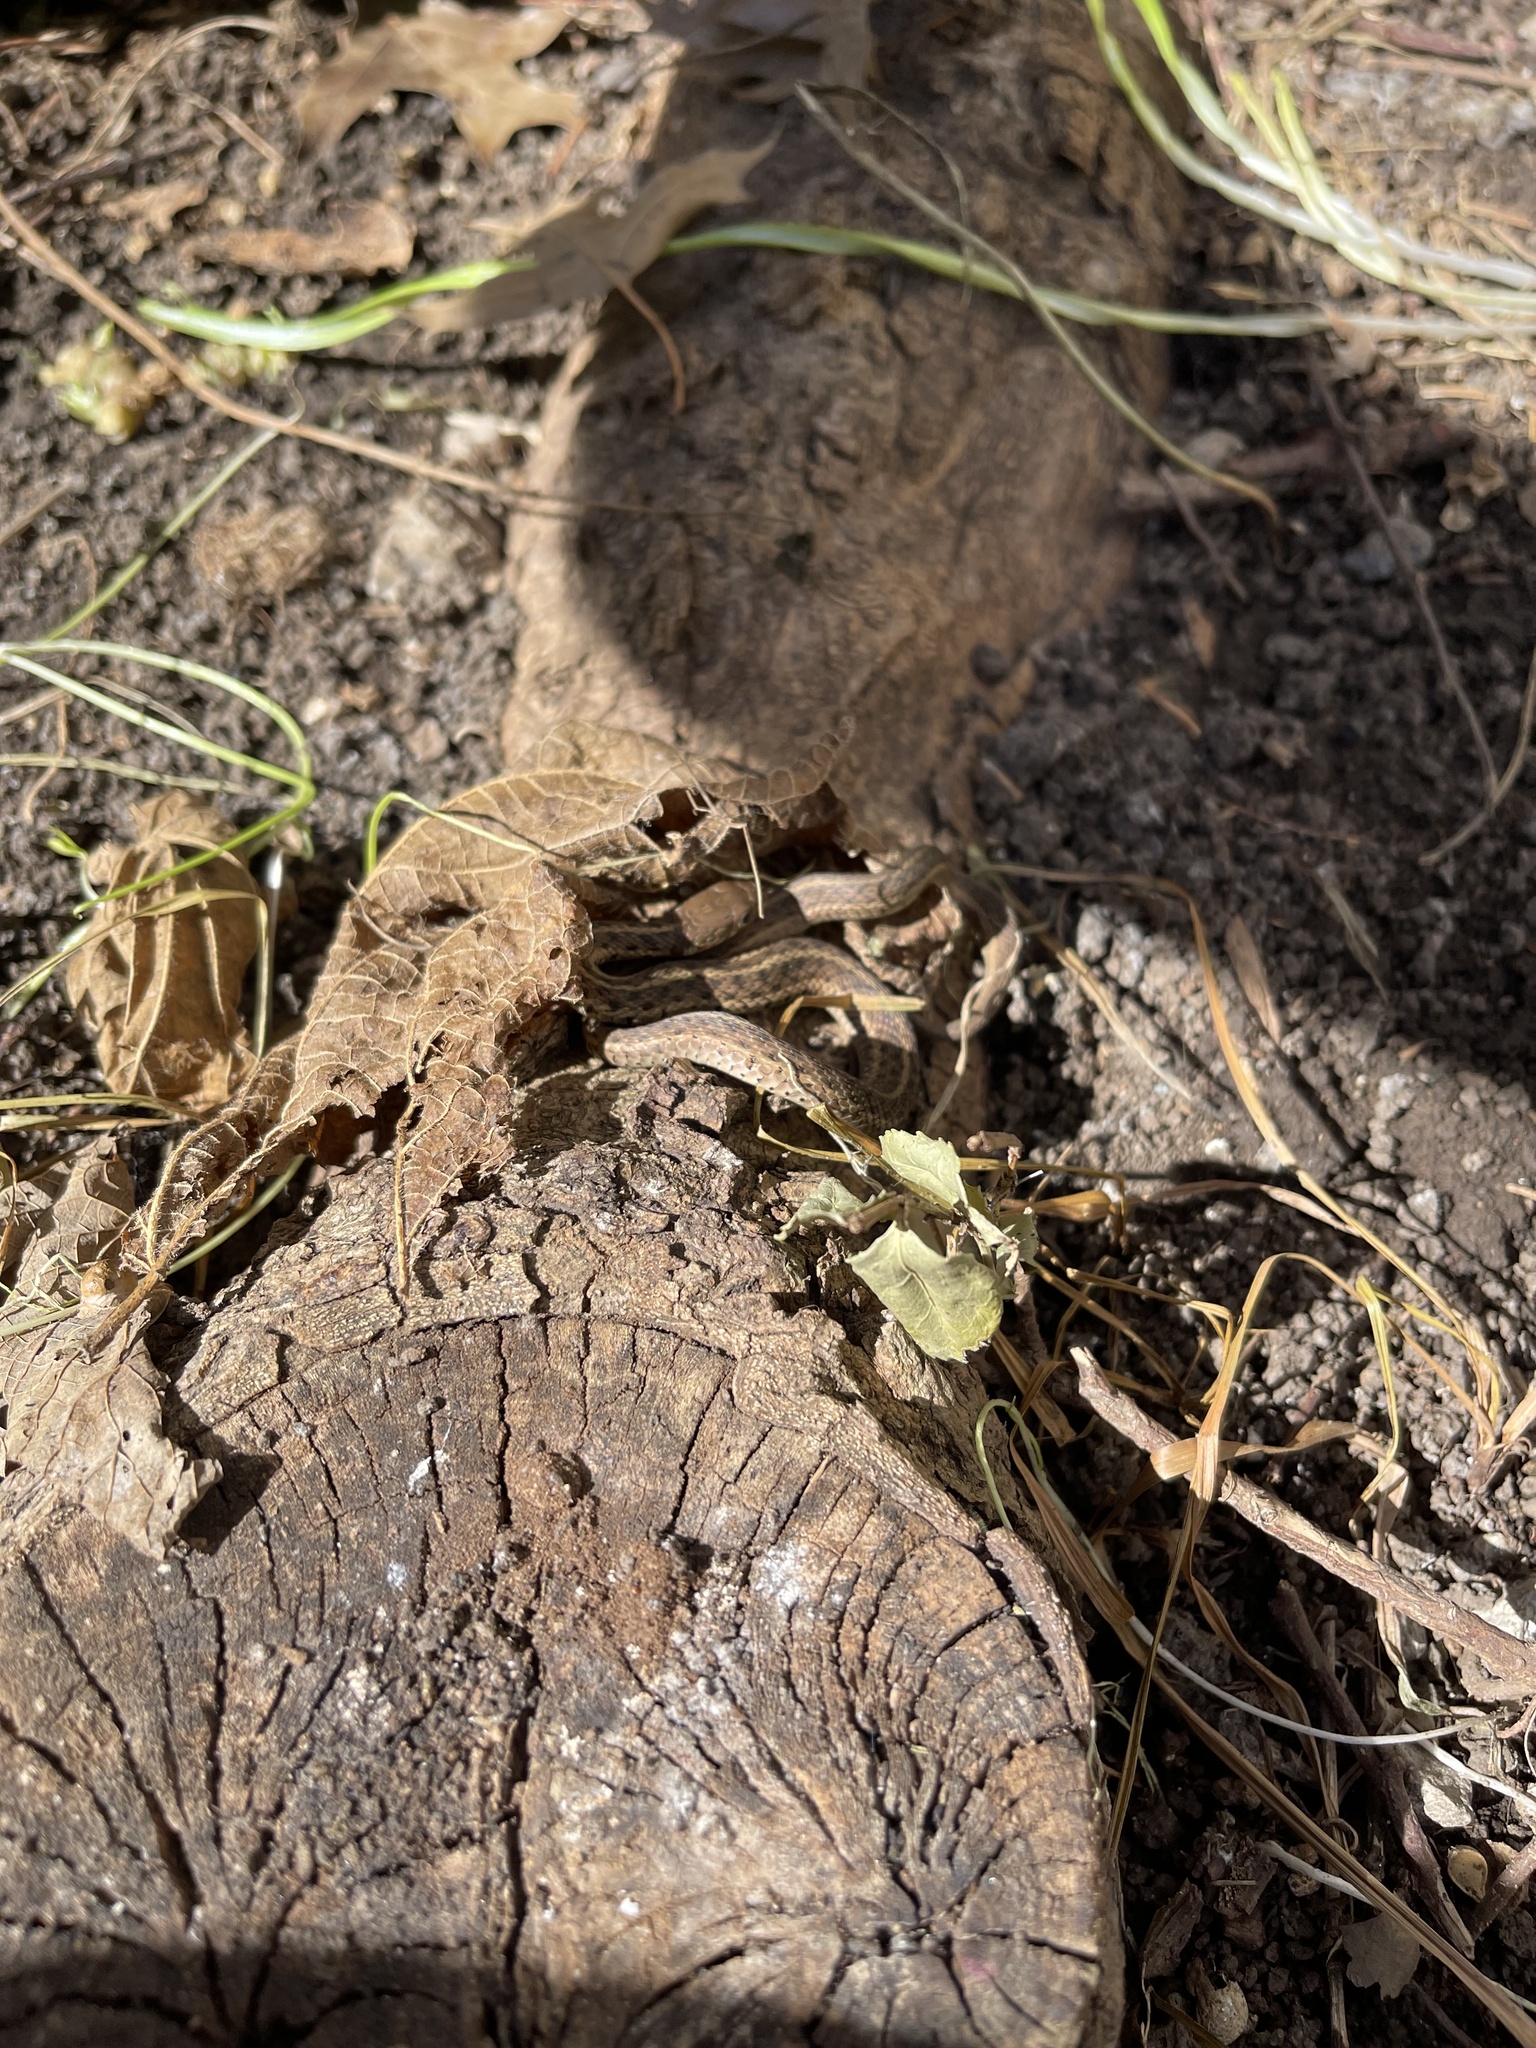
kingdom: Animalia
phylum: Chordata
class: Squamata
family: Colubridae
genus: Thamnophis
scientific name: Thamnophis sirtalis
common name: Common garter snake
